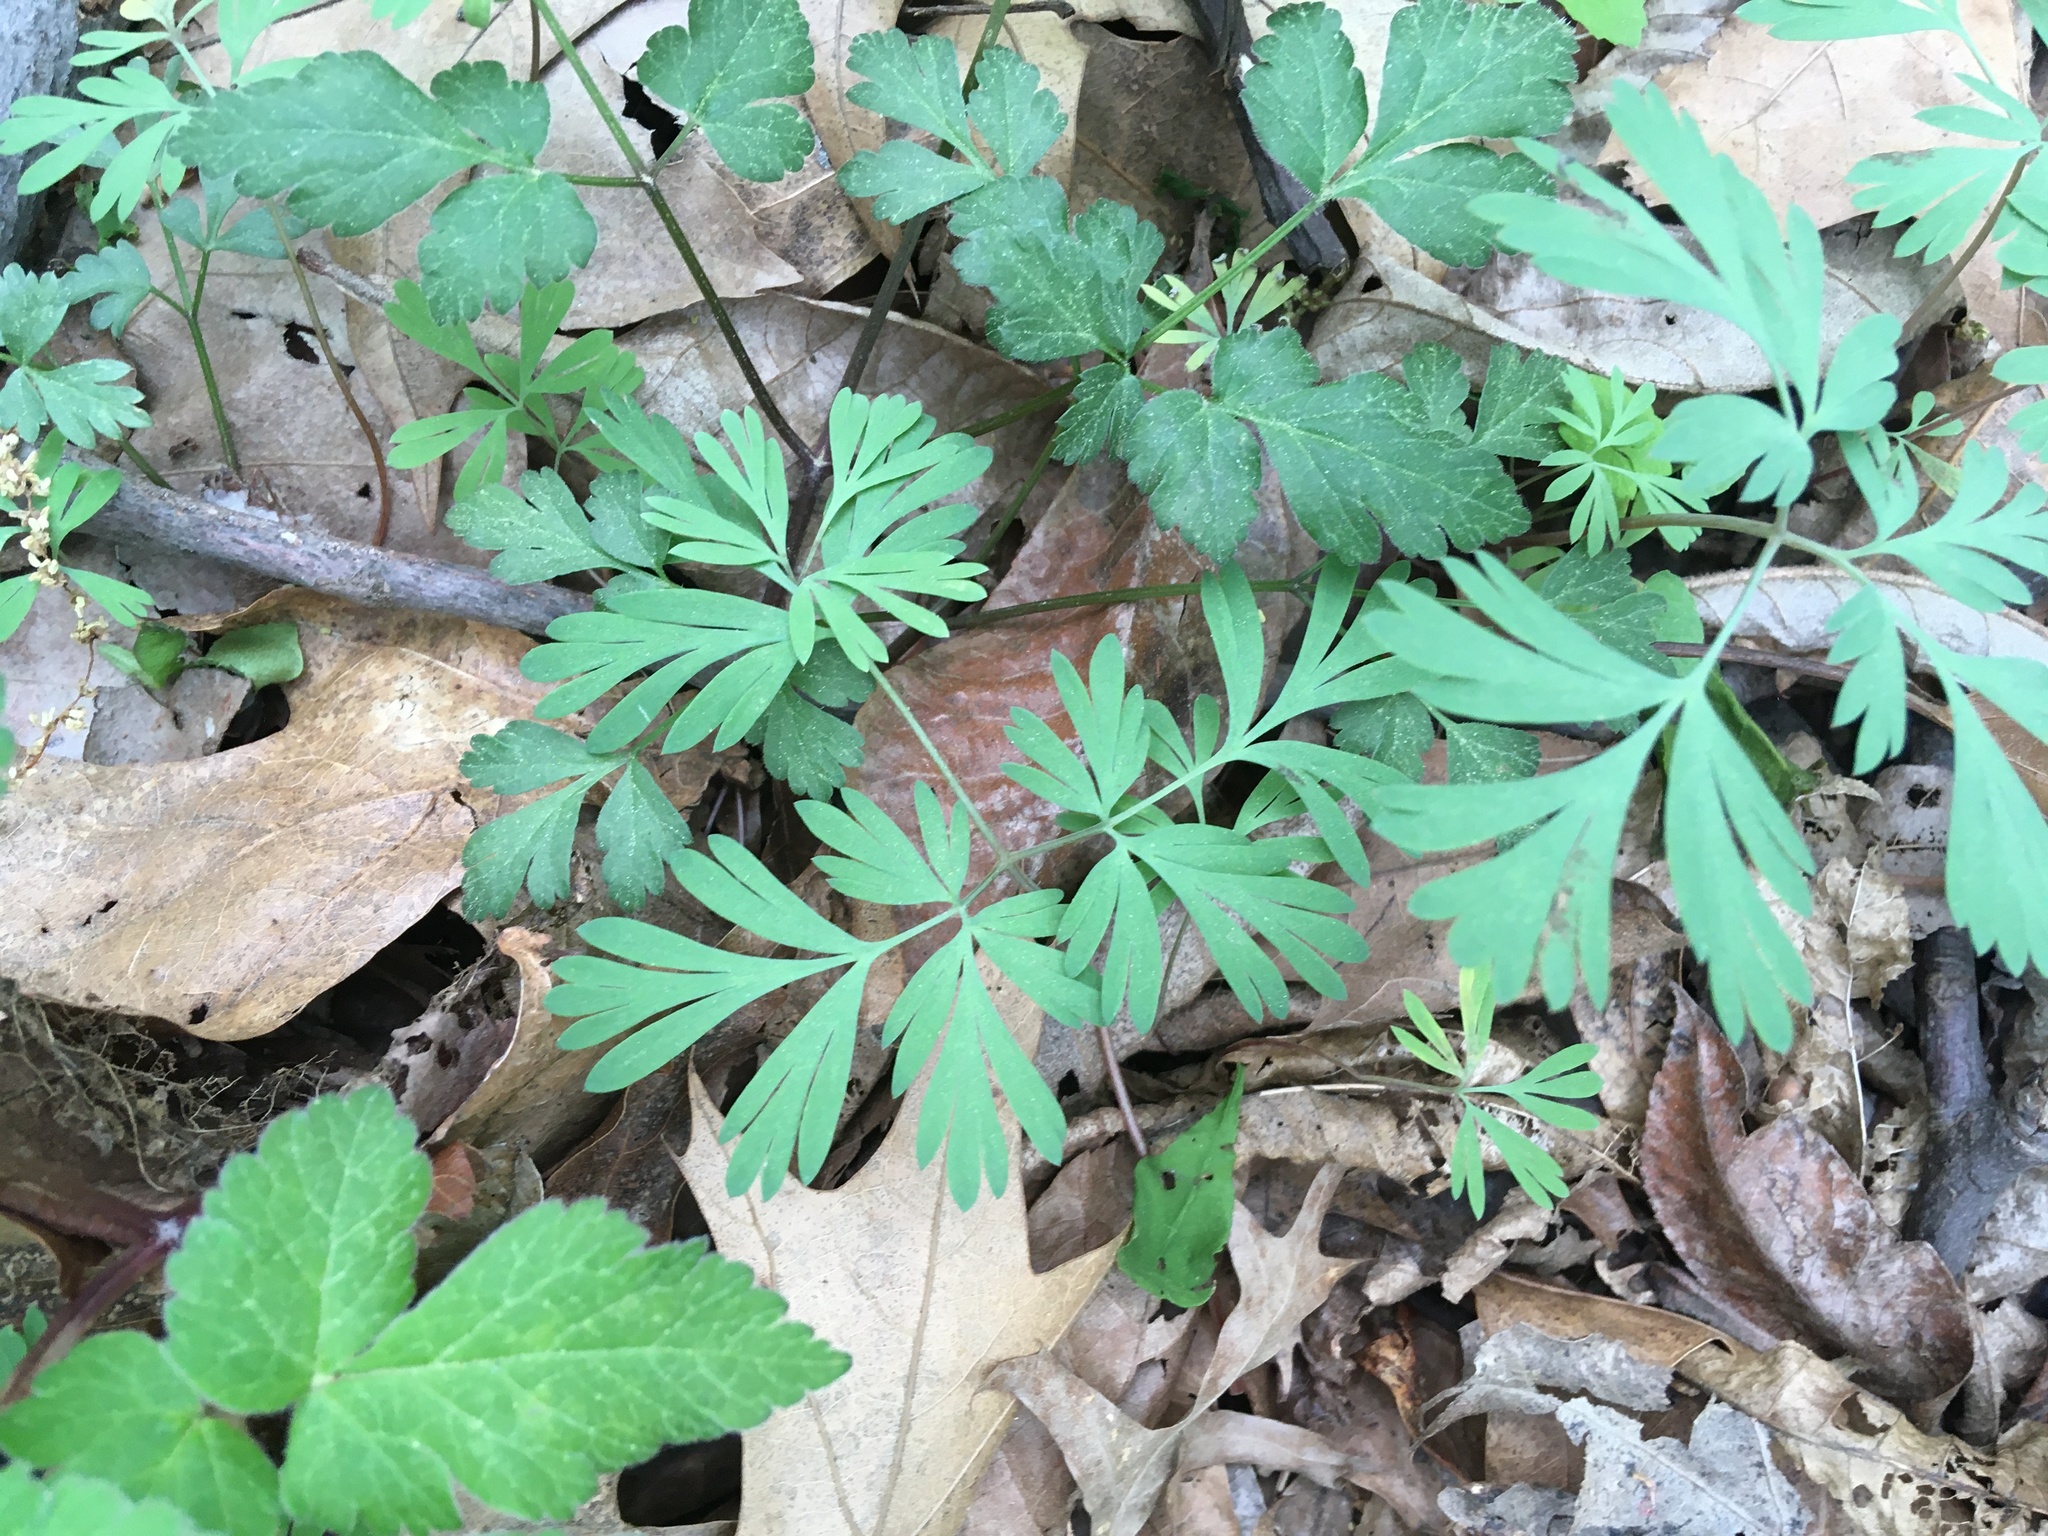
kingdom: Plantae
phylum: Tracheophyta
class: Magnoliopsida
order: Ranunculales
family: Papaveraceae
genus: Dicentra
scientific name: Dicentra cucullaria
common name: Dutchman's breeches
